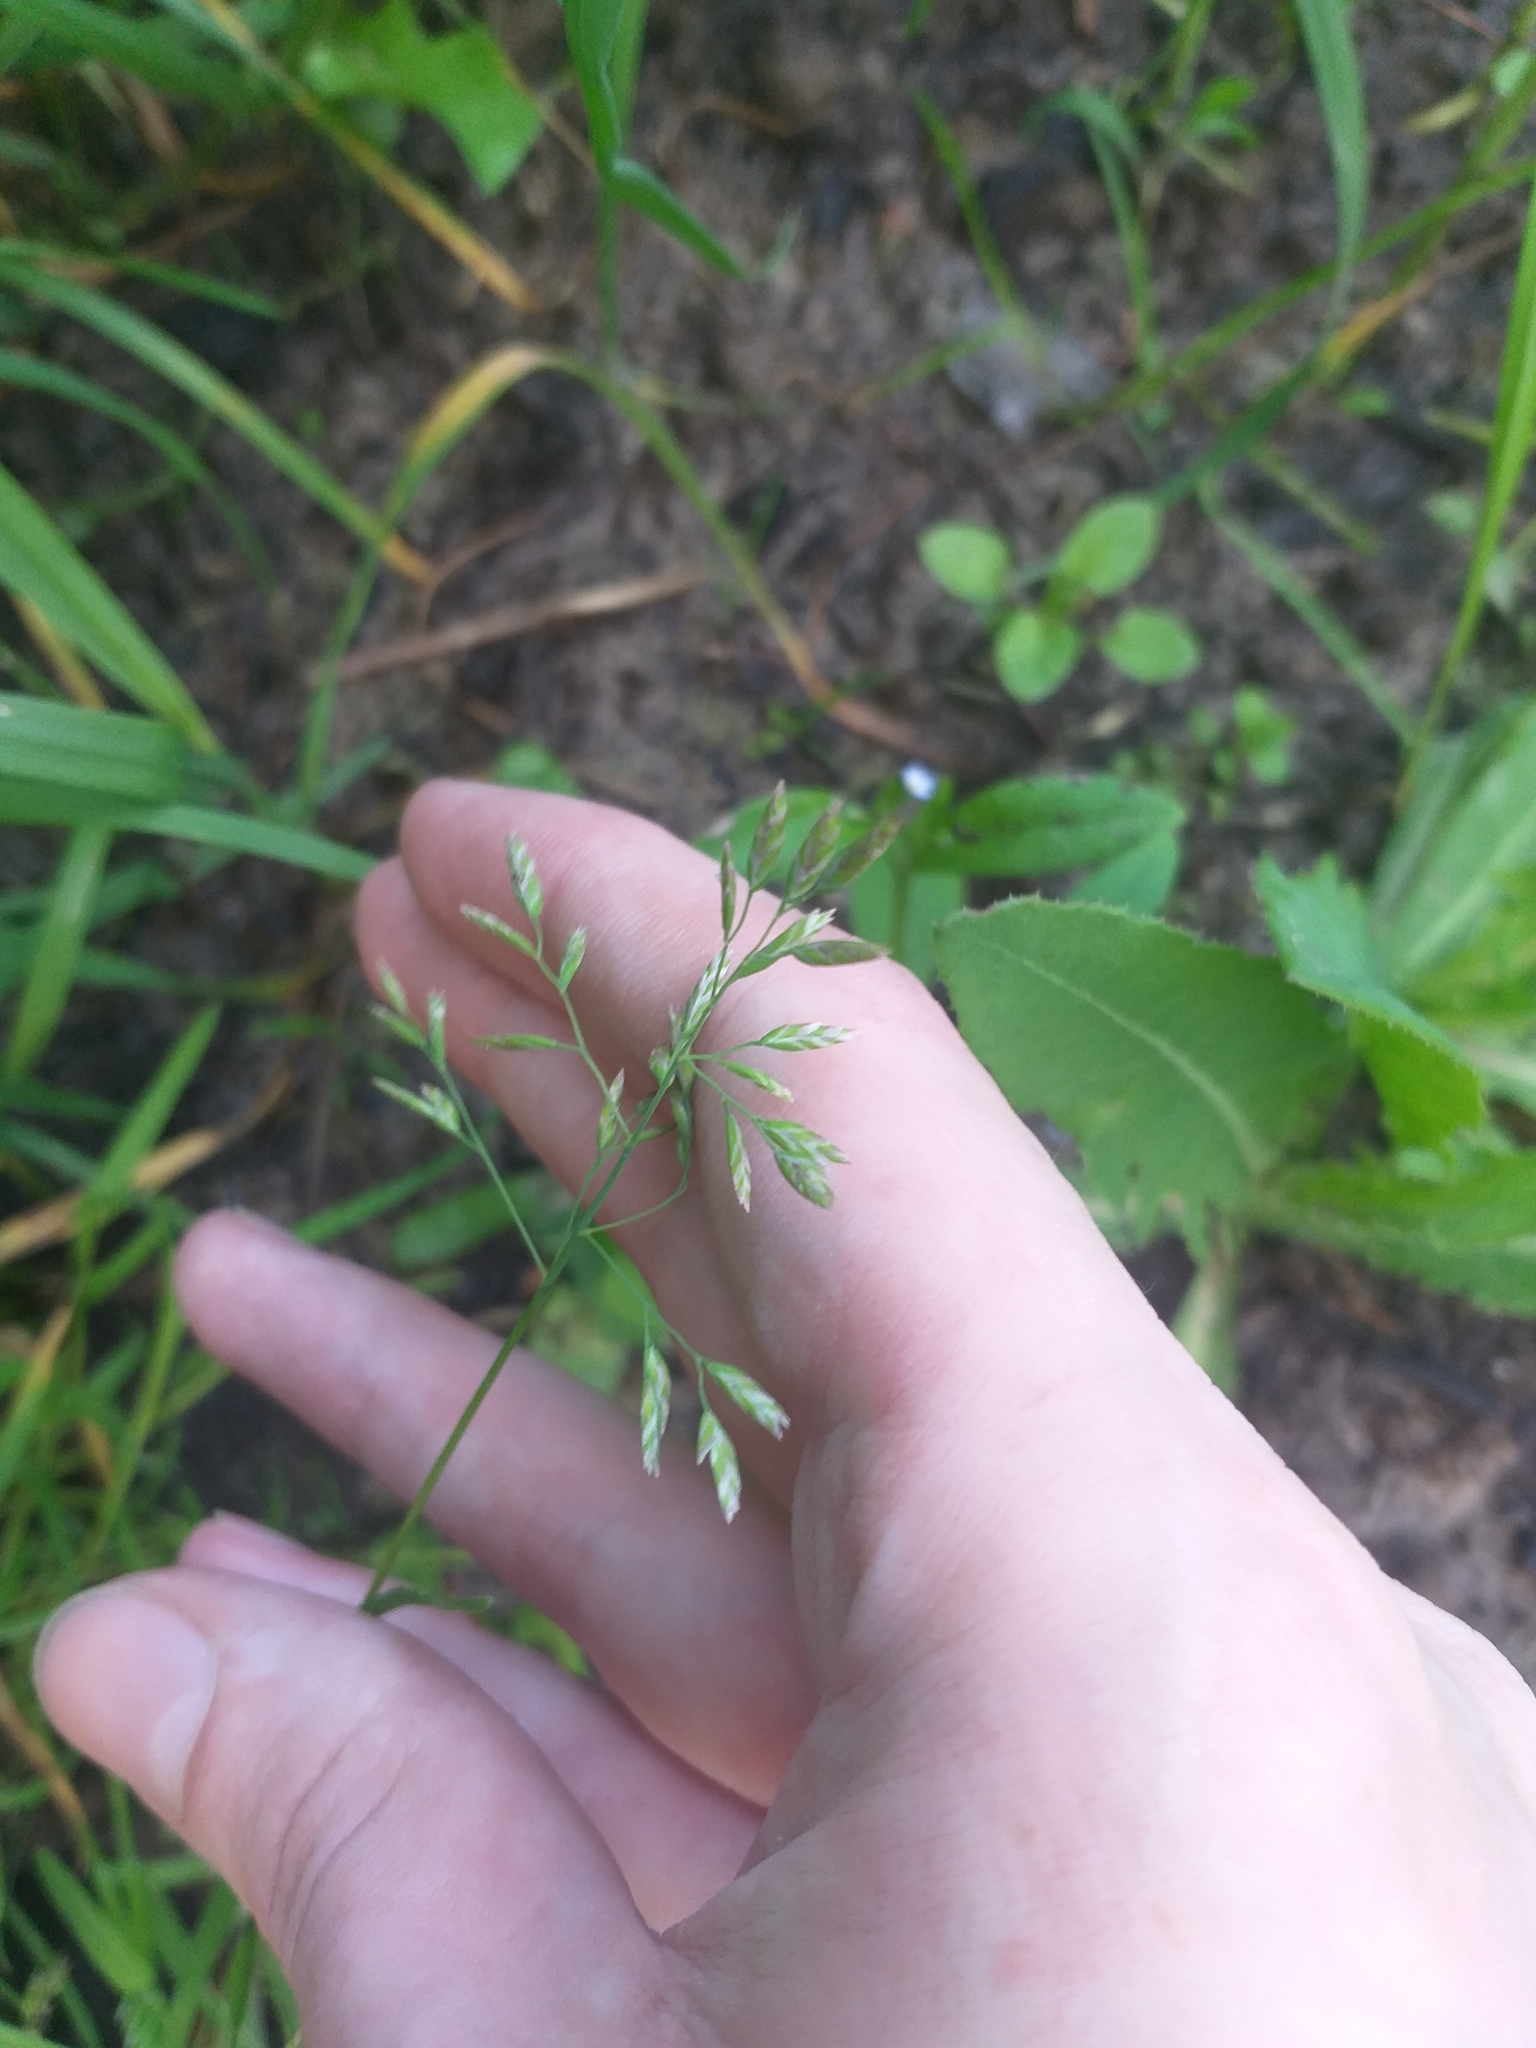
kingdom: Plantae
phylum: Tracheophyta
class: Liliopsida
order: Poales
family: Poaceae
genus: Poa
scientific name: Poa annua
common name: Annual bluegrass
